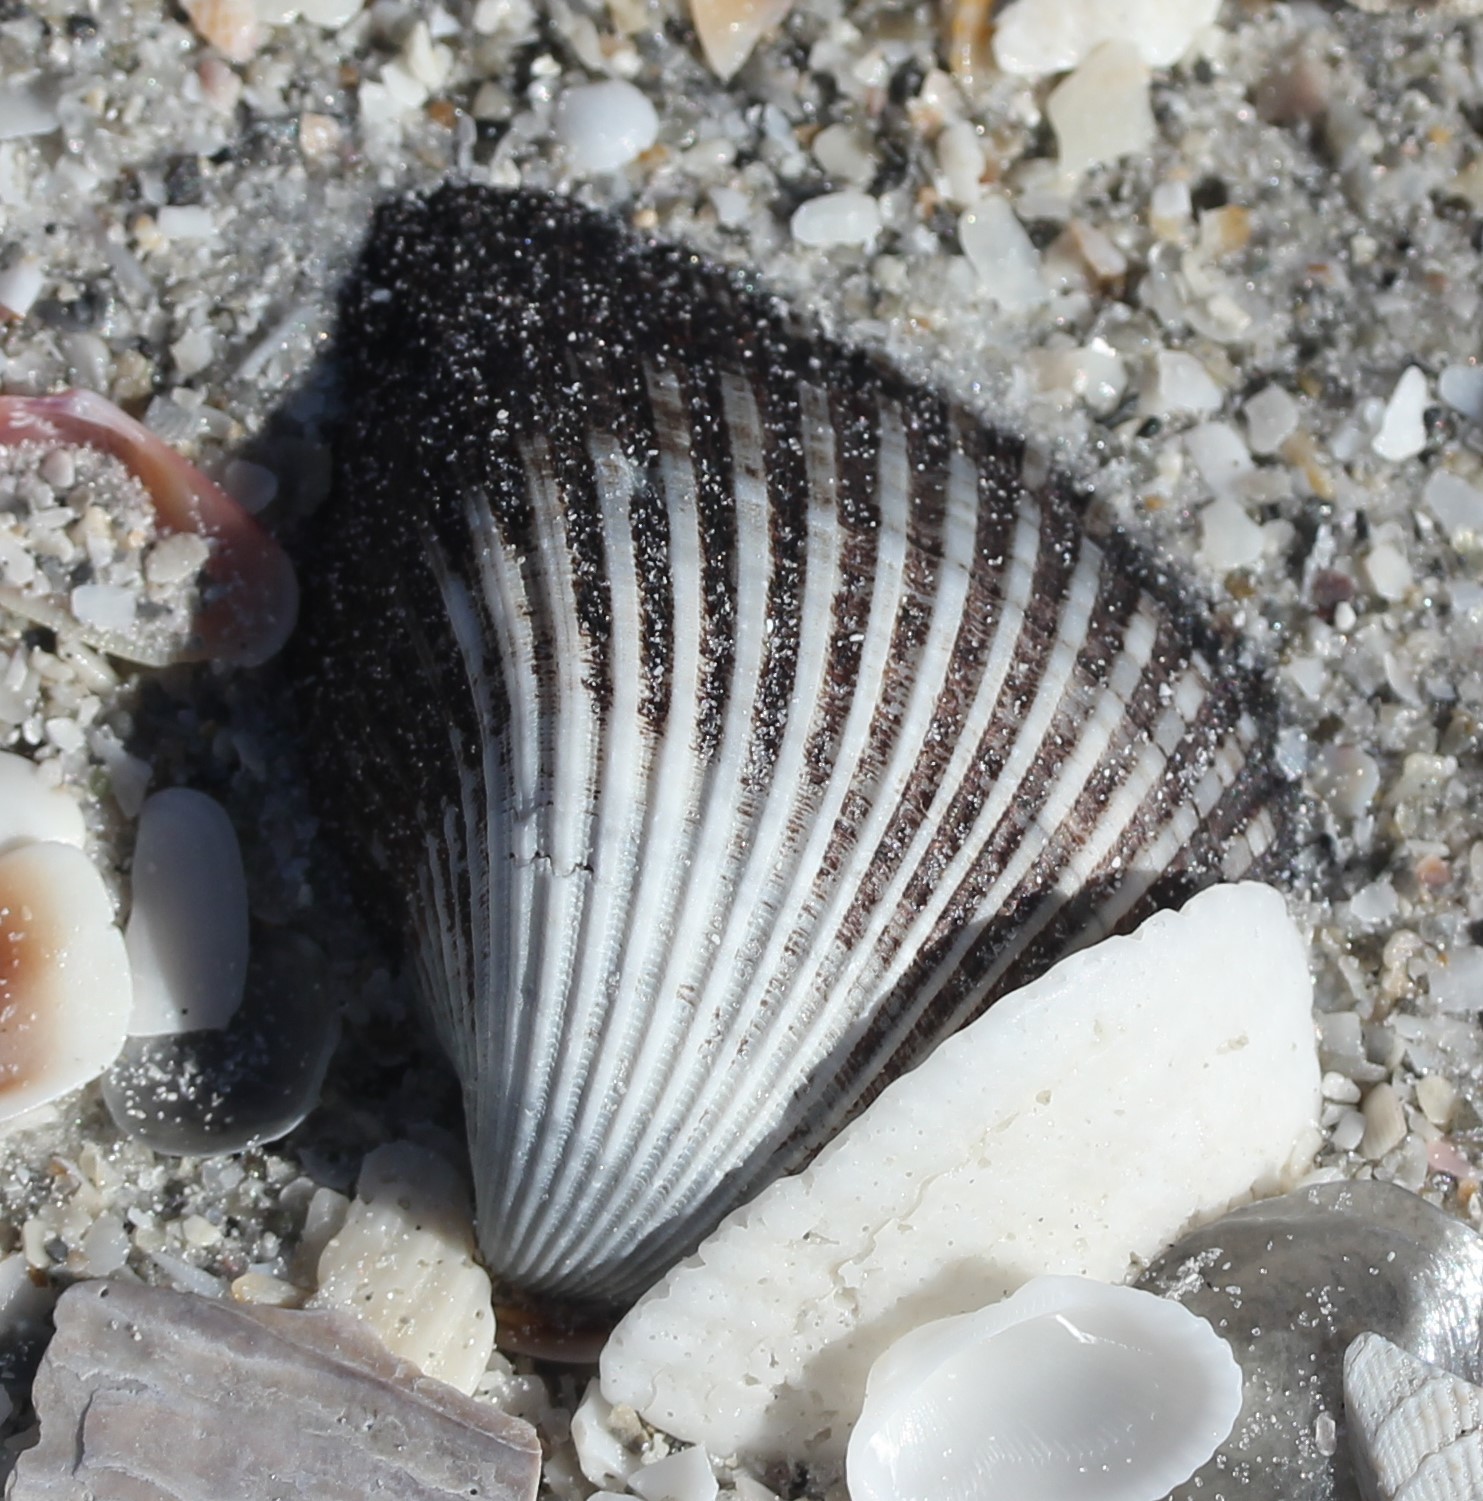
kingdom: Animalia
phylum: Mollusca
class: Bivalvia
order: Arcida
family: Noetiidae
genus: Noetia
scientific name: Noetia ponderosa
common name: Ponderous ark
